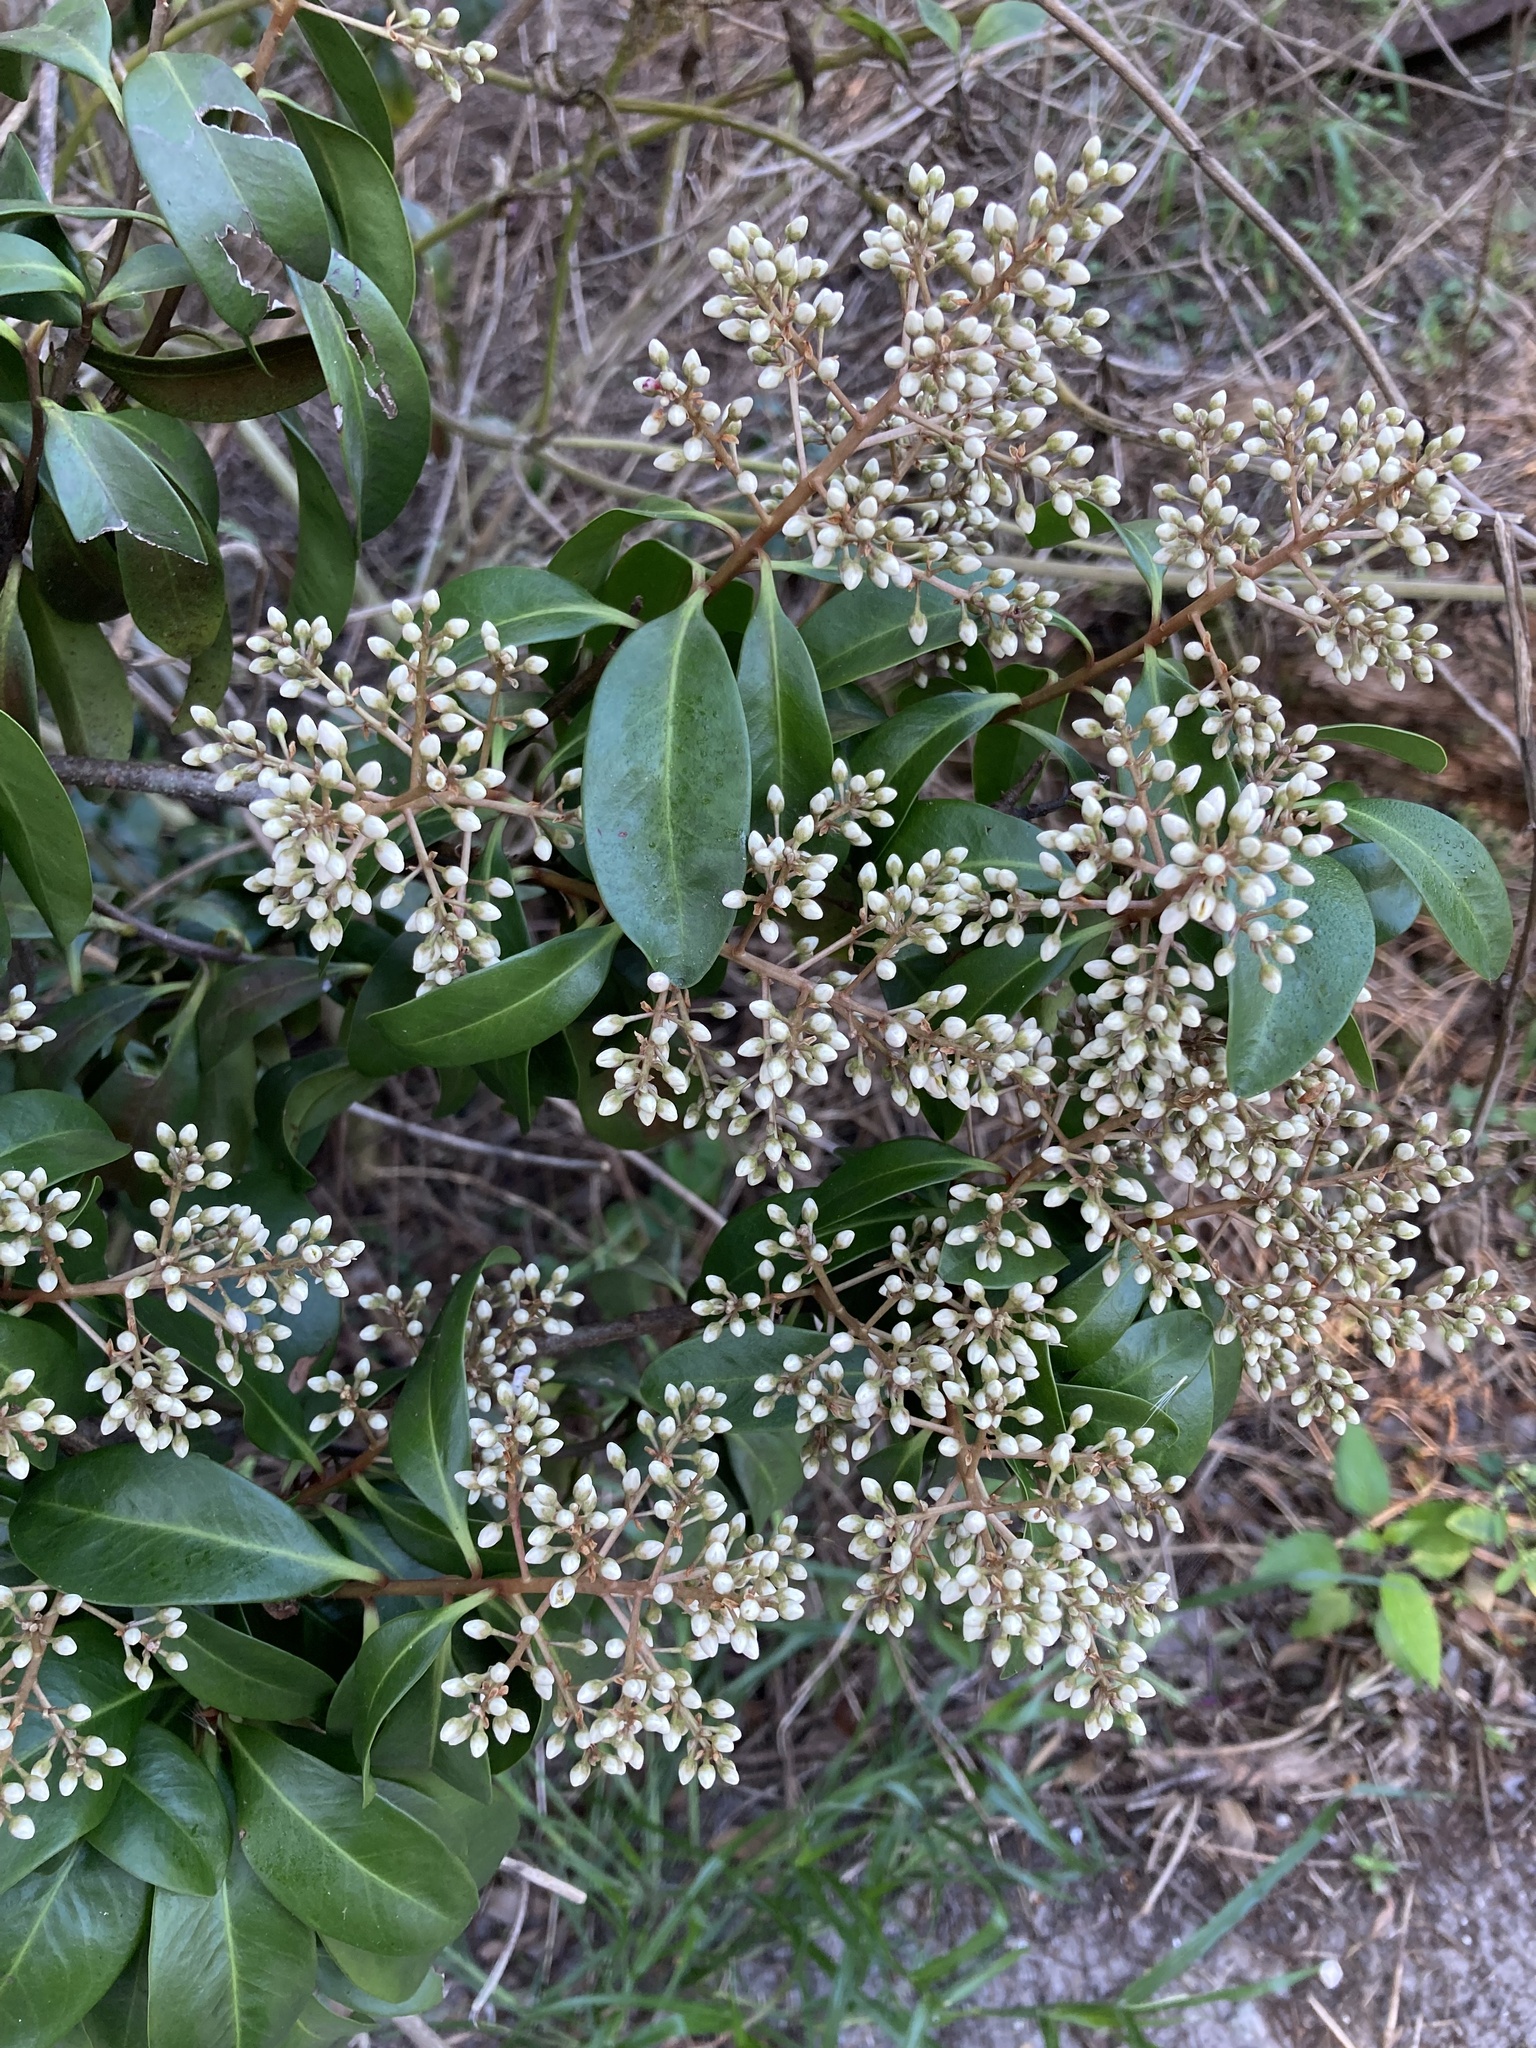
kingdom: Plantae
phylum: Tracheophyta
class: Magnoliopsida
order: Ericales
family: Primulaceae
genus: Ardisia
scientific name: Ardisia escallonioides
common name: Island marlberry
